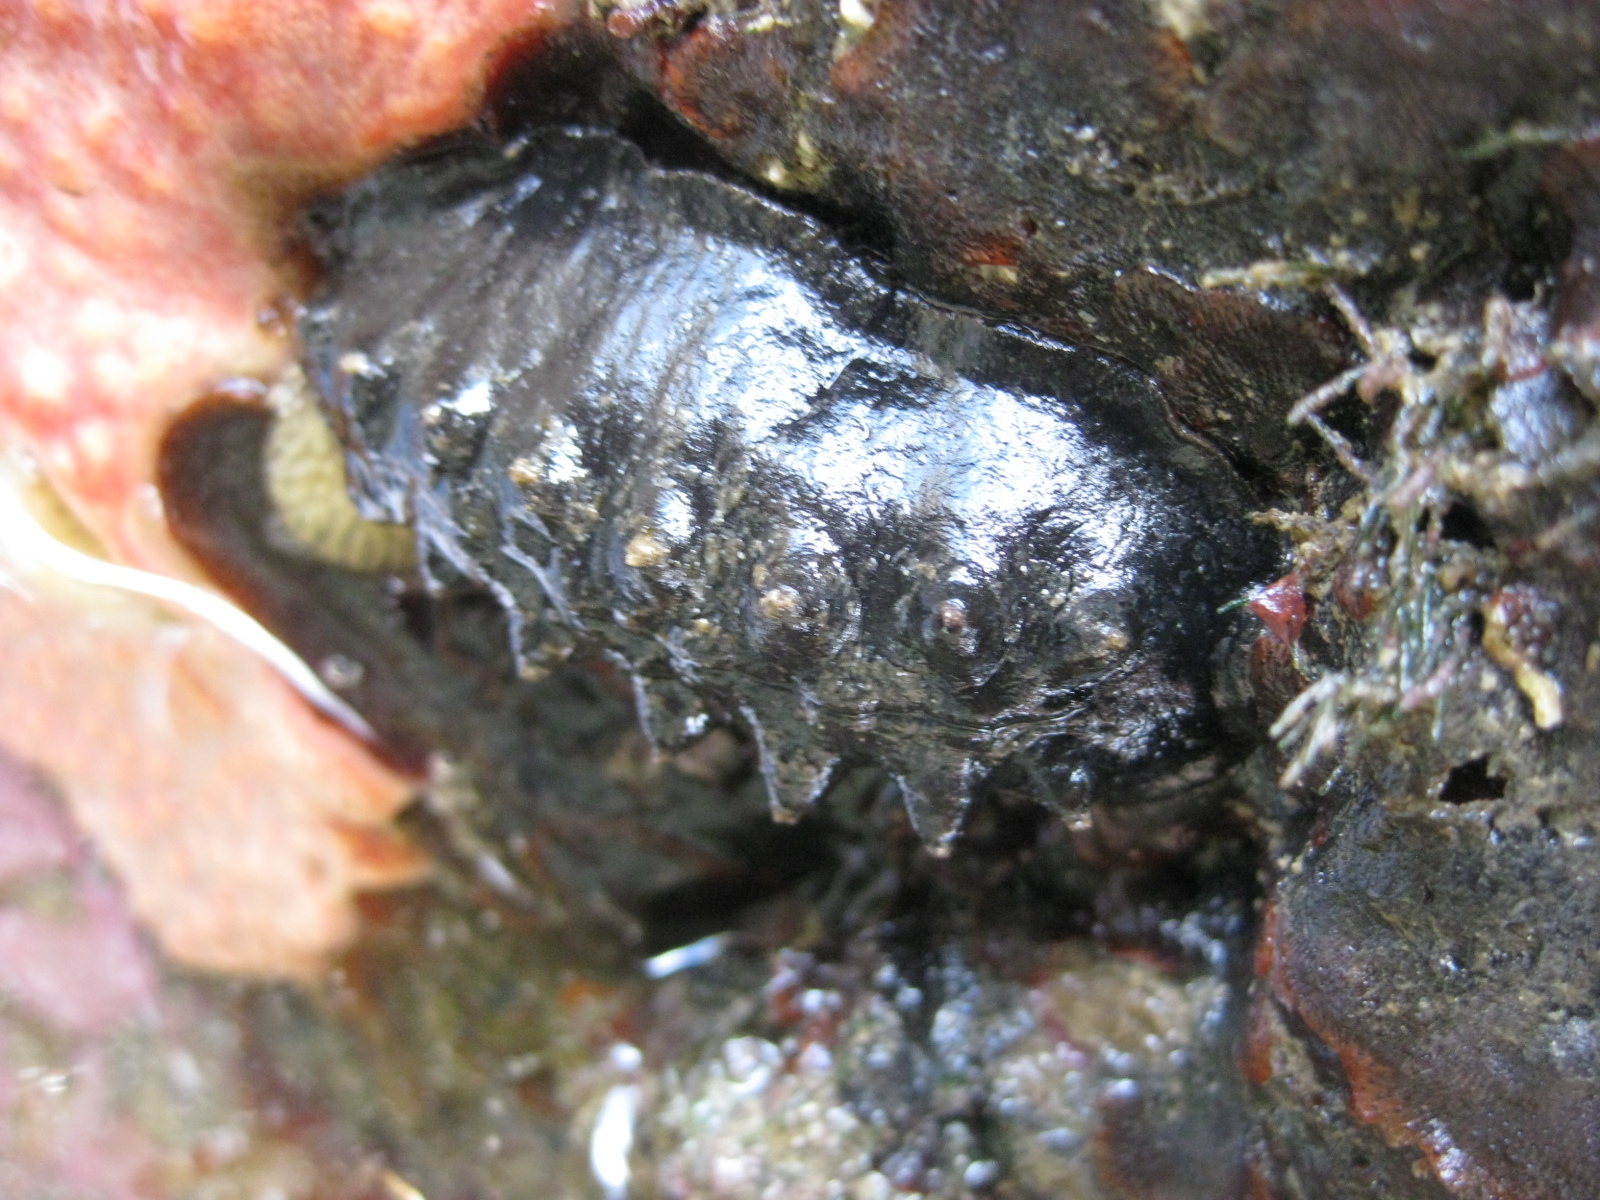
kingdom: Animalia
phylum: Mollusca
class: Polyplacophora
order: Chitonida
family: Acanthochitonidae
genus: Cryptoconchus
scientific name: Cryptoconchus porosus
